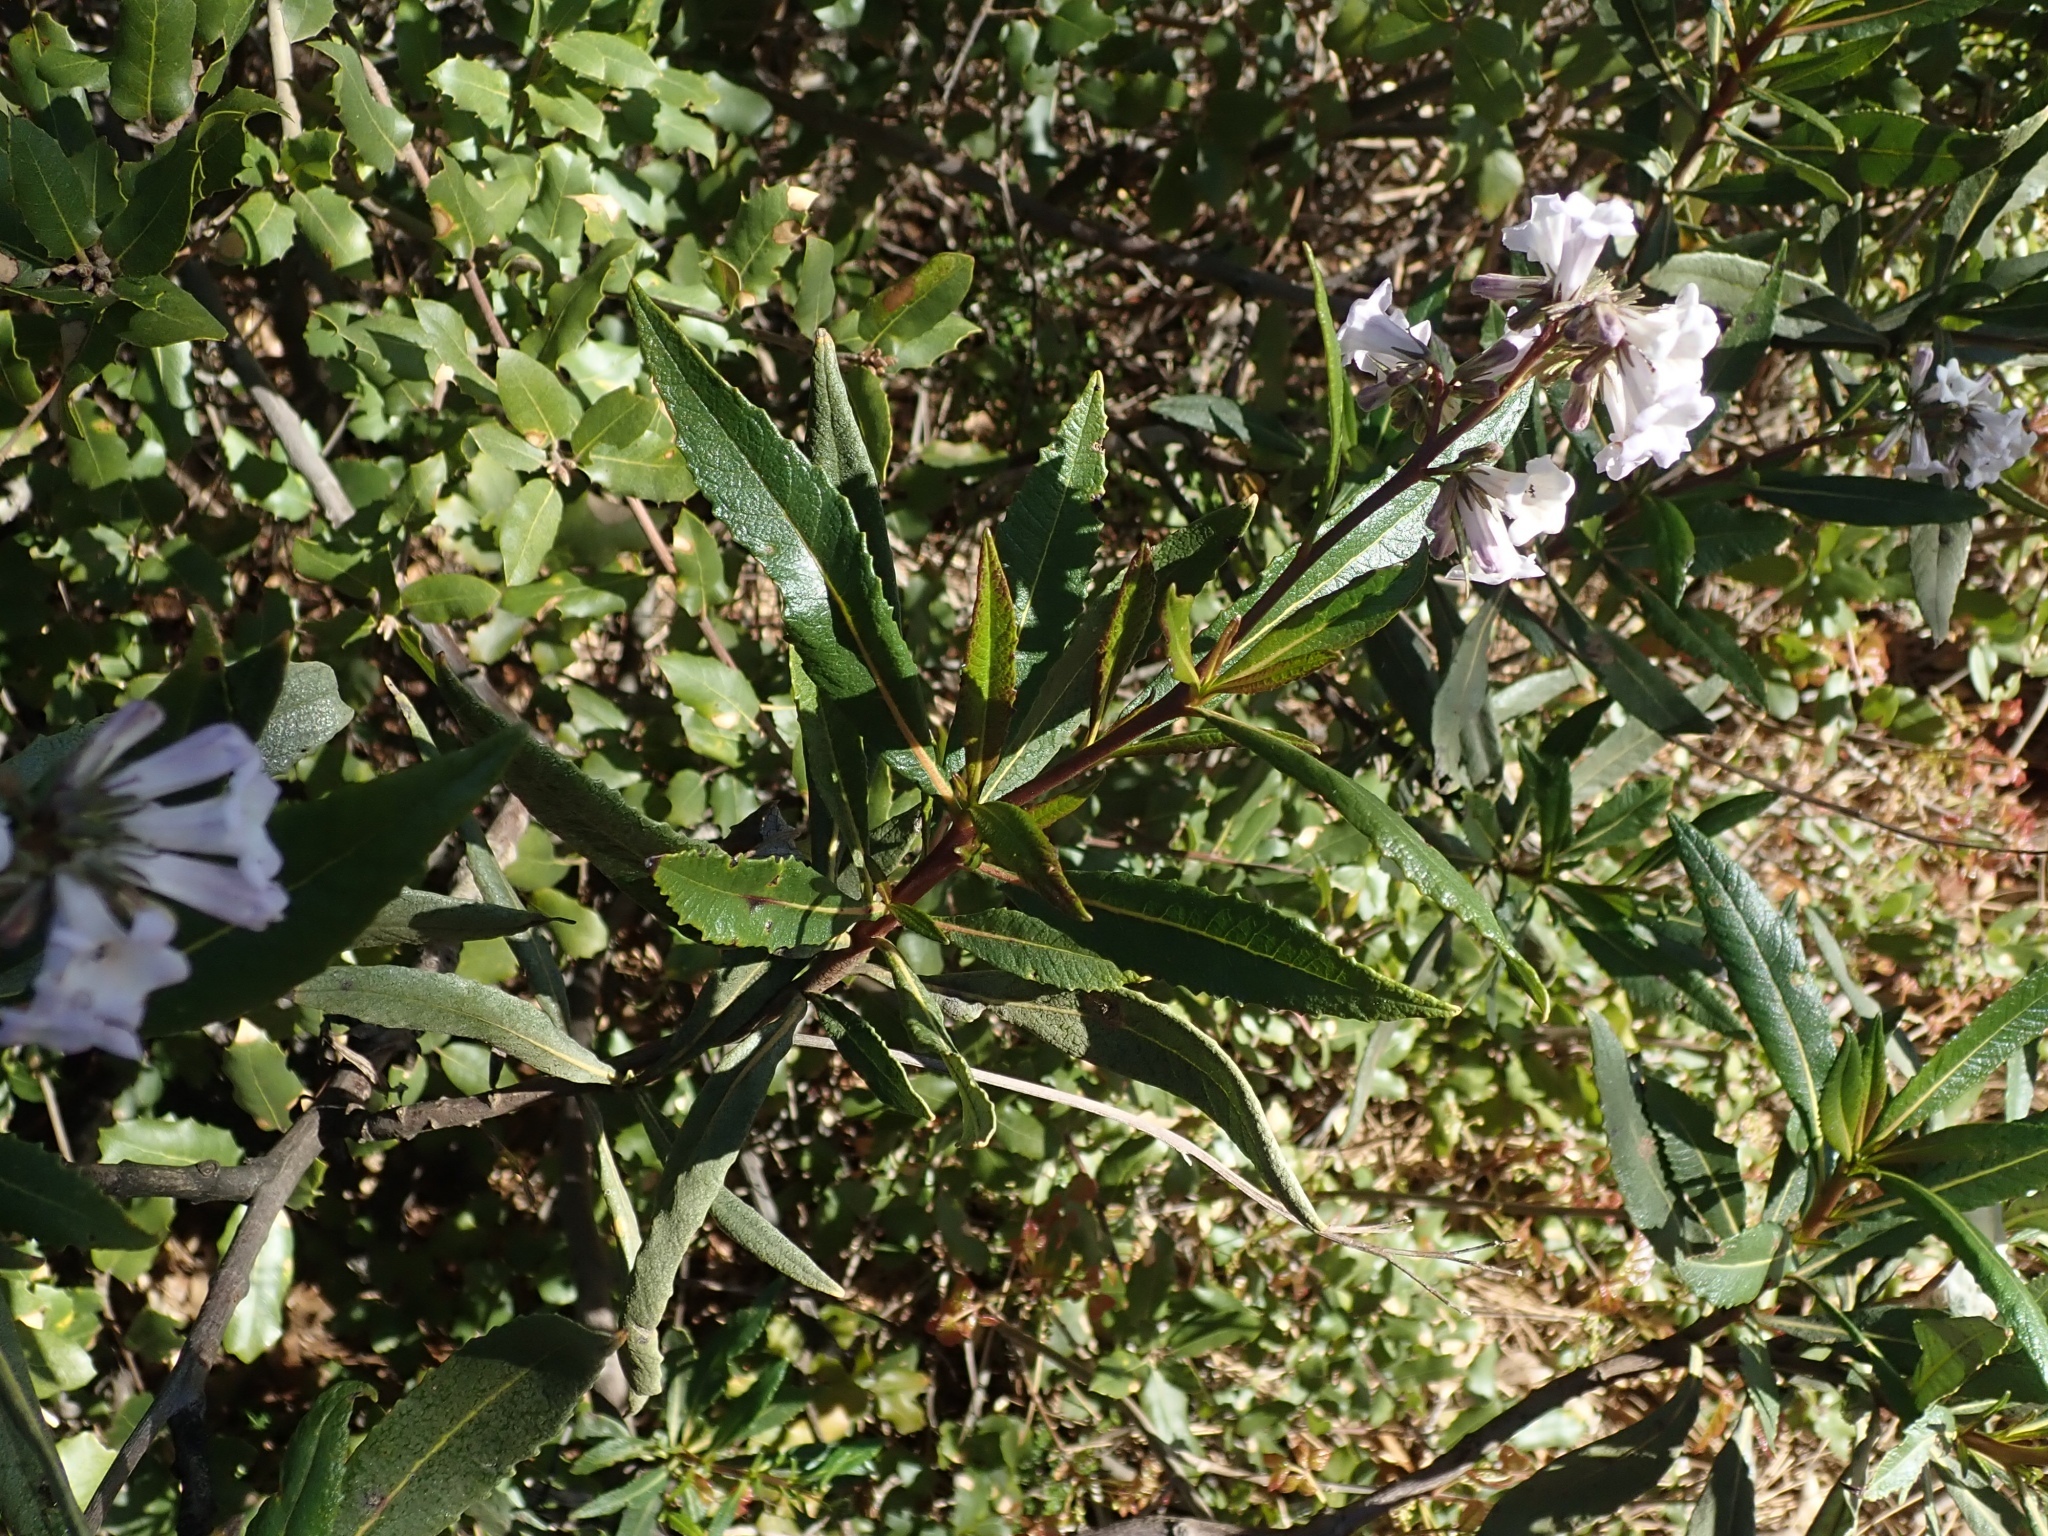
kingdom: Plantae
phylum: Tracheophyta
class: Magnoliopsida
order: Boraginales
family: Namaceae
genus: Eriodictyon
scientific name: Eriodictyon californicum
